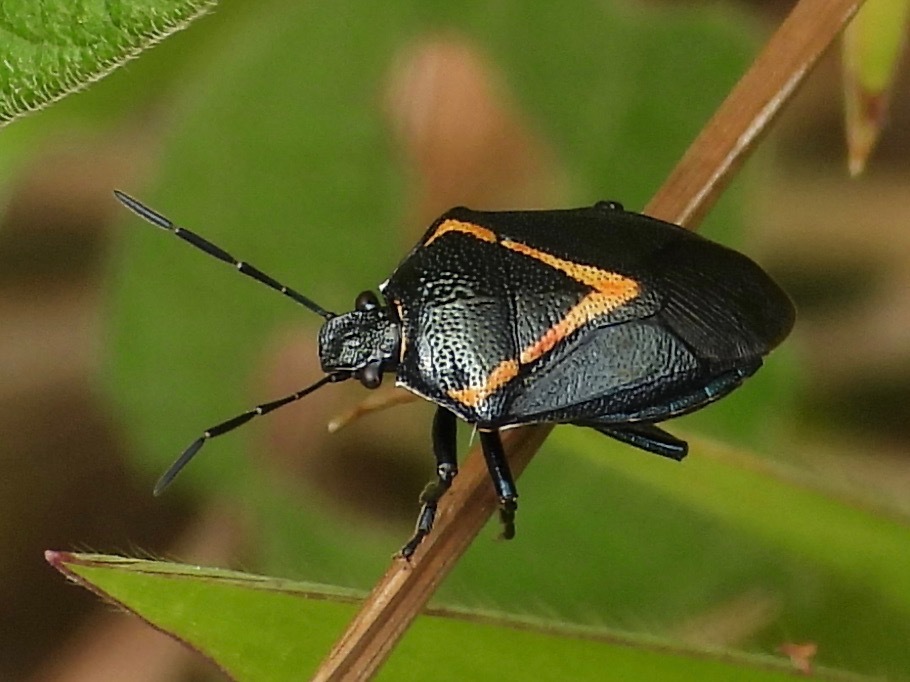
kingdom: Animalia
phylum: Arthropoda
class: Insecta
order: Hemiptera
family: Pentatomidae
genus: Perillus
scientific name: Perillus confluens
